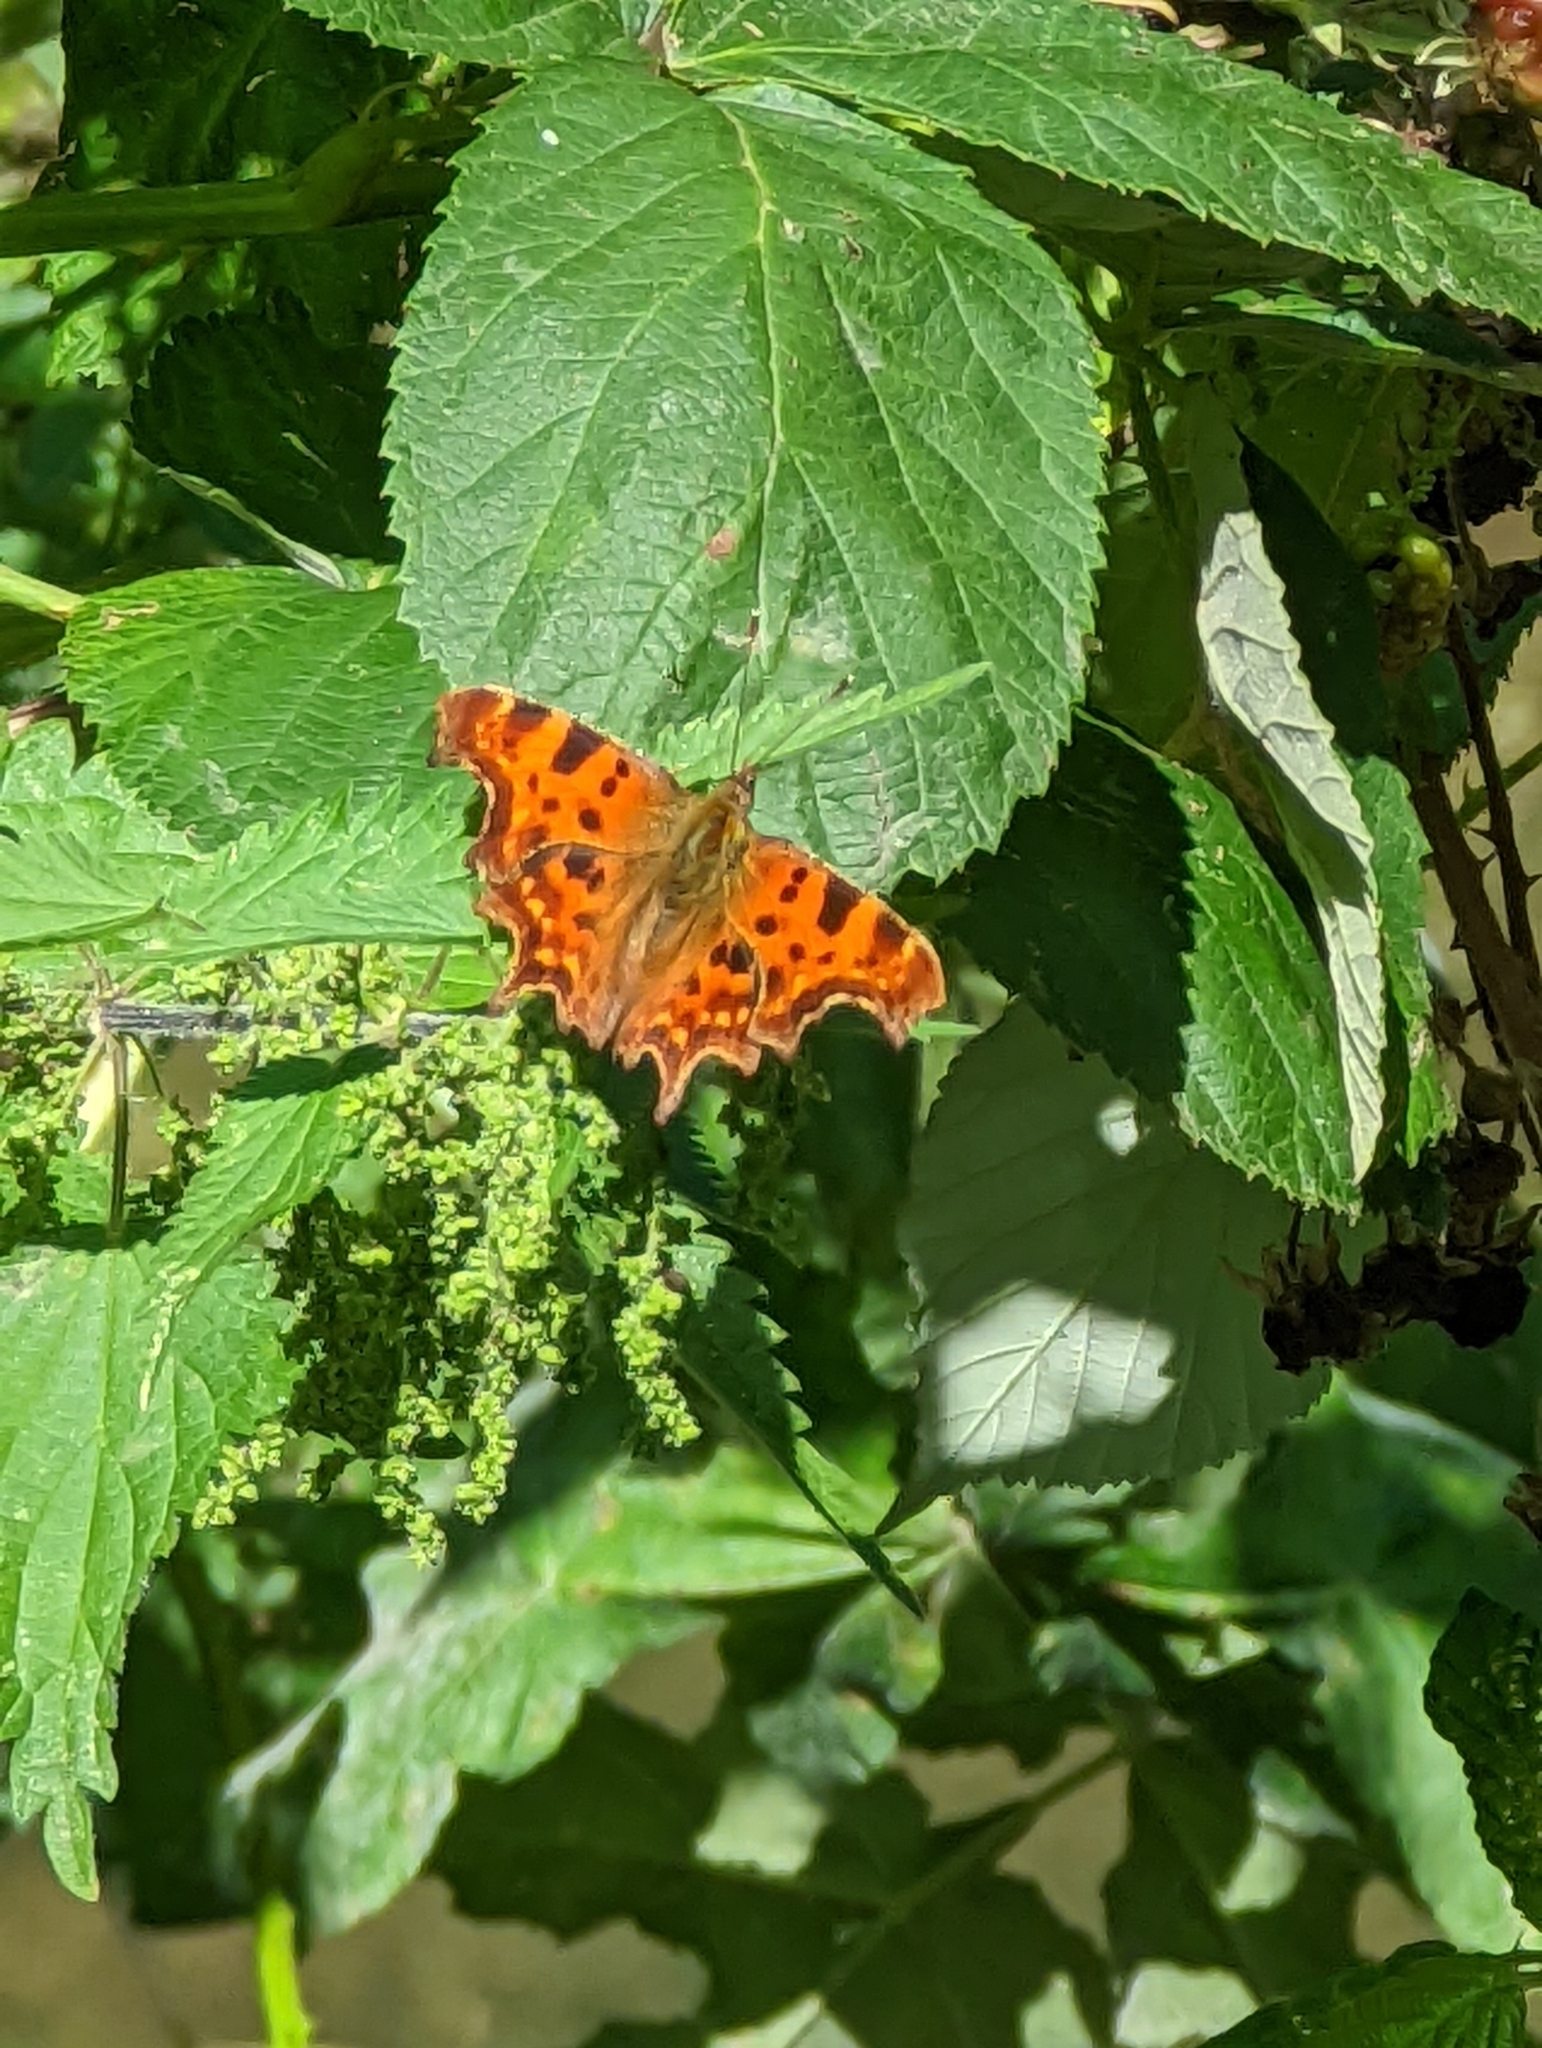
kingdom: Animalia
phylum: Arthropoda
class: Insecta
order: Lepidoptera
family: Nymphalidae
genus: Polygonia
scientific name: Polygonia c-album
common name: Comma
